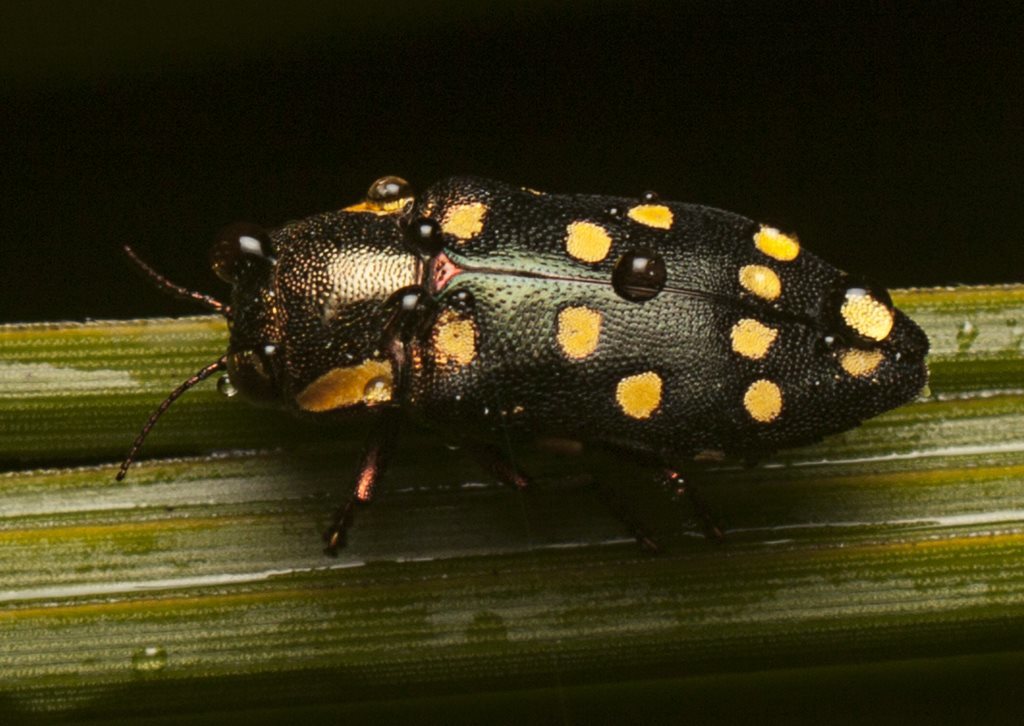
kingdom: Animalia
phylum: Arthropoda
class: Insecta
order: Coleoptera
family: Buprestidae
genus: Diphucrania
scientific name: Diphucrania duodecimmaculata
